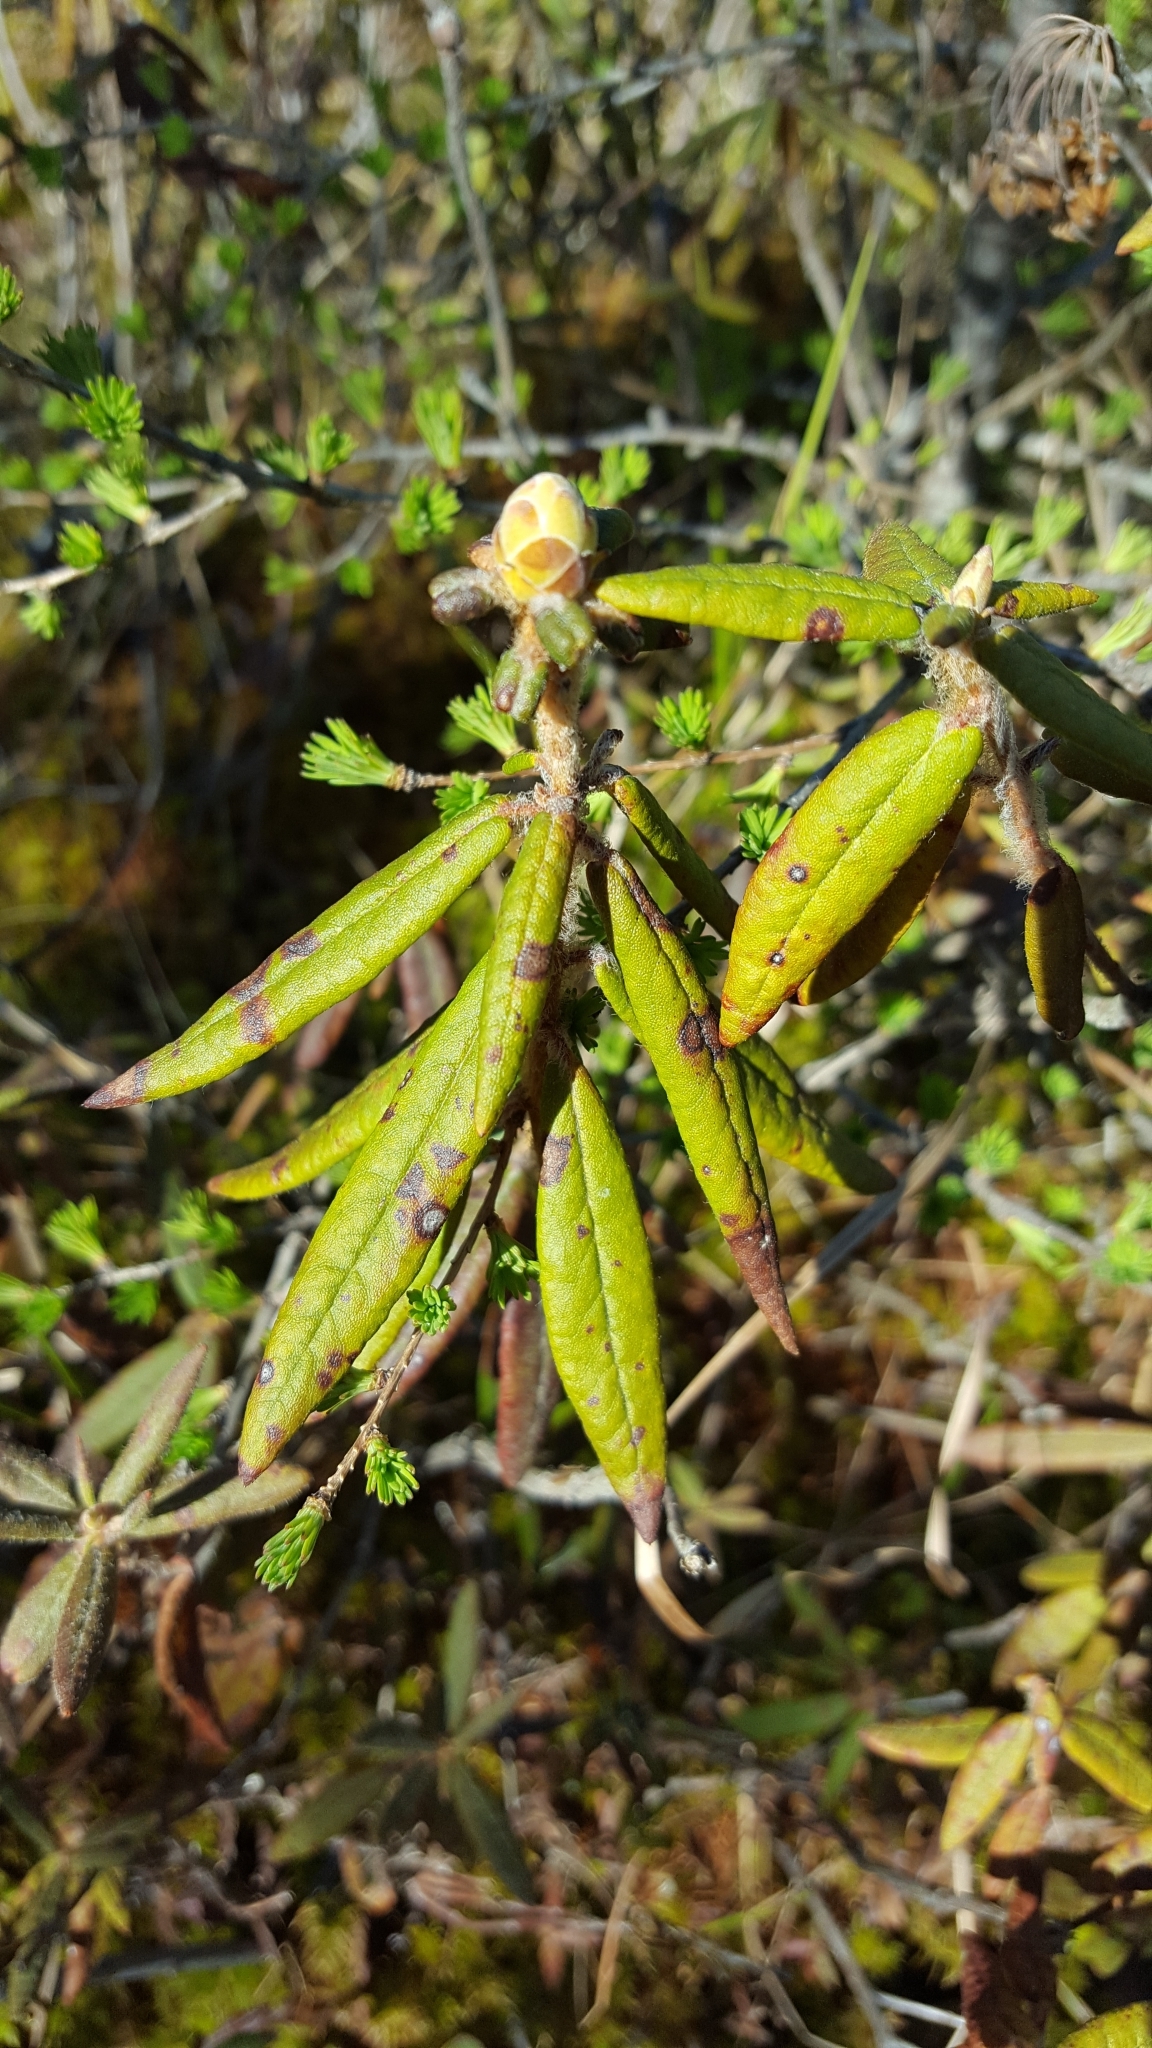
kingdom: Plantae
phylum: Tracheophyta
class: Magnoliopsida
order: Ericales
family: Ericaceae
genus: Rhododendron
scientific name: Rhododendron groenlandicum
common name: Bog labrador tea
